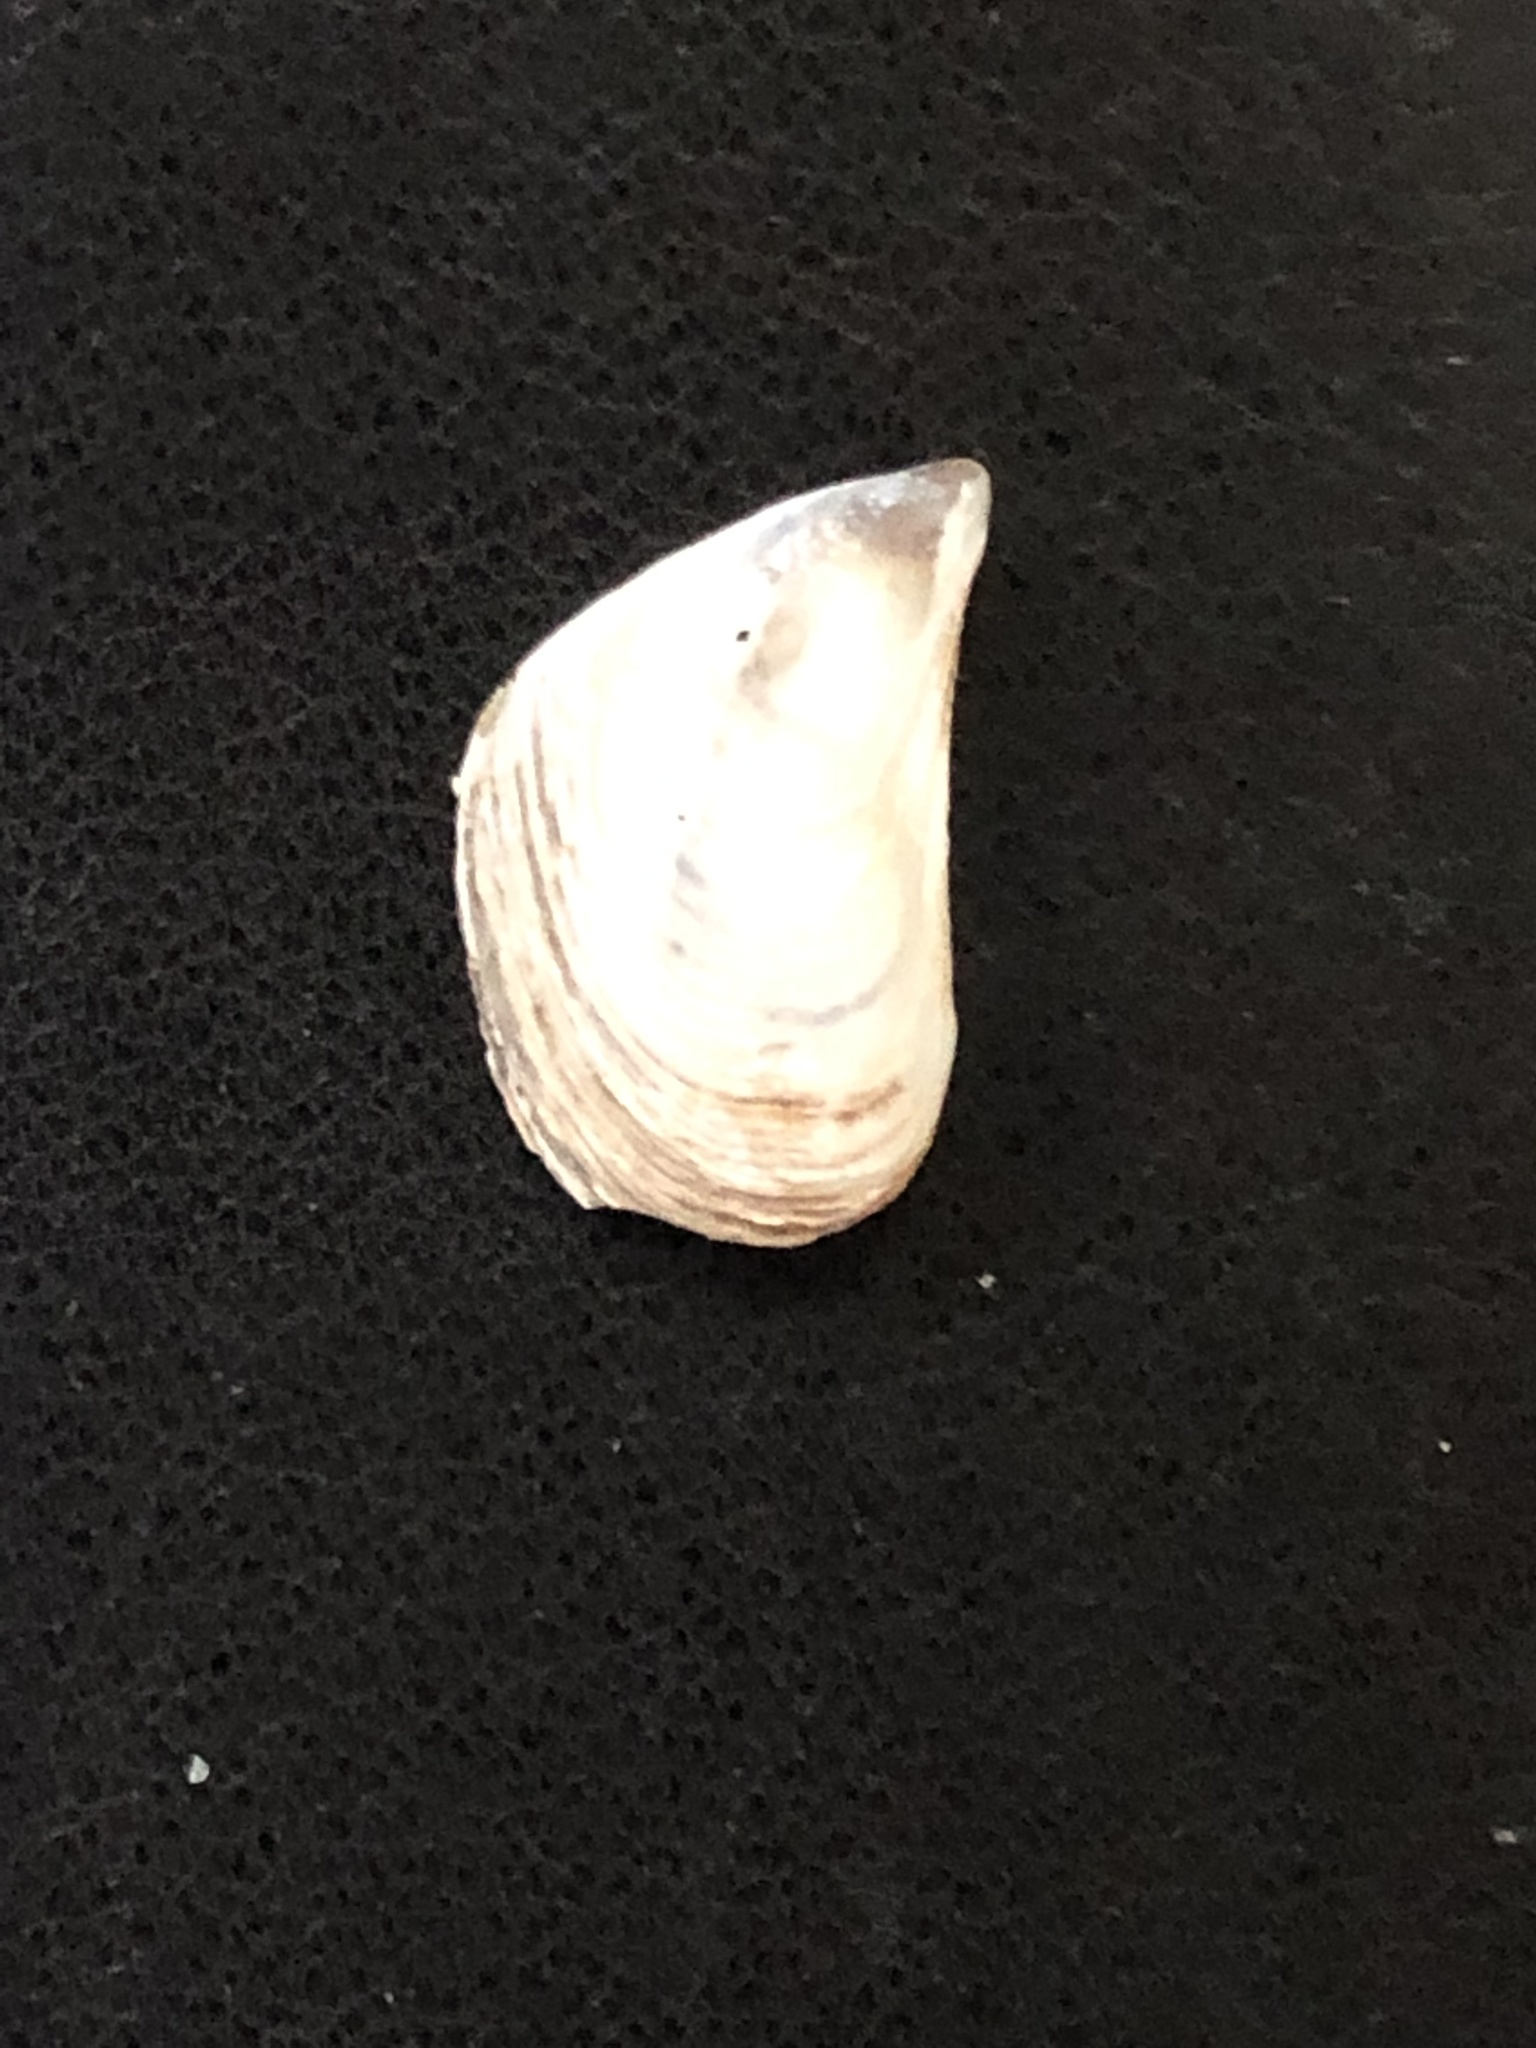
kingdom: Animalia
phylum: Mollusca
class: Bivalvia
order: Myida
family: Dreissenidae
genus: Dreissena
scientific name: Dreissena bugensis
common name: Quagga mussel
